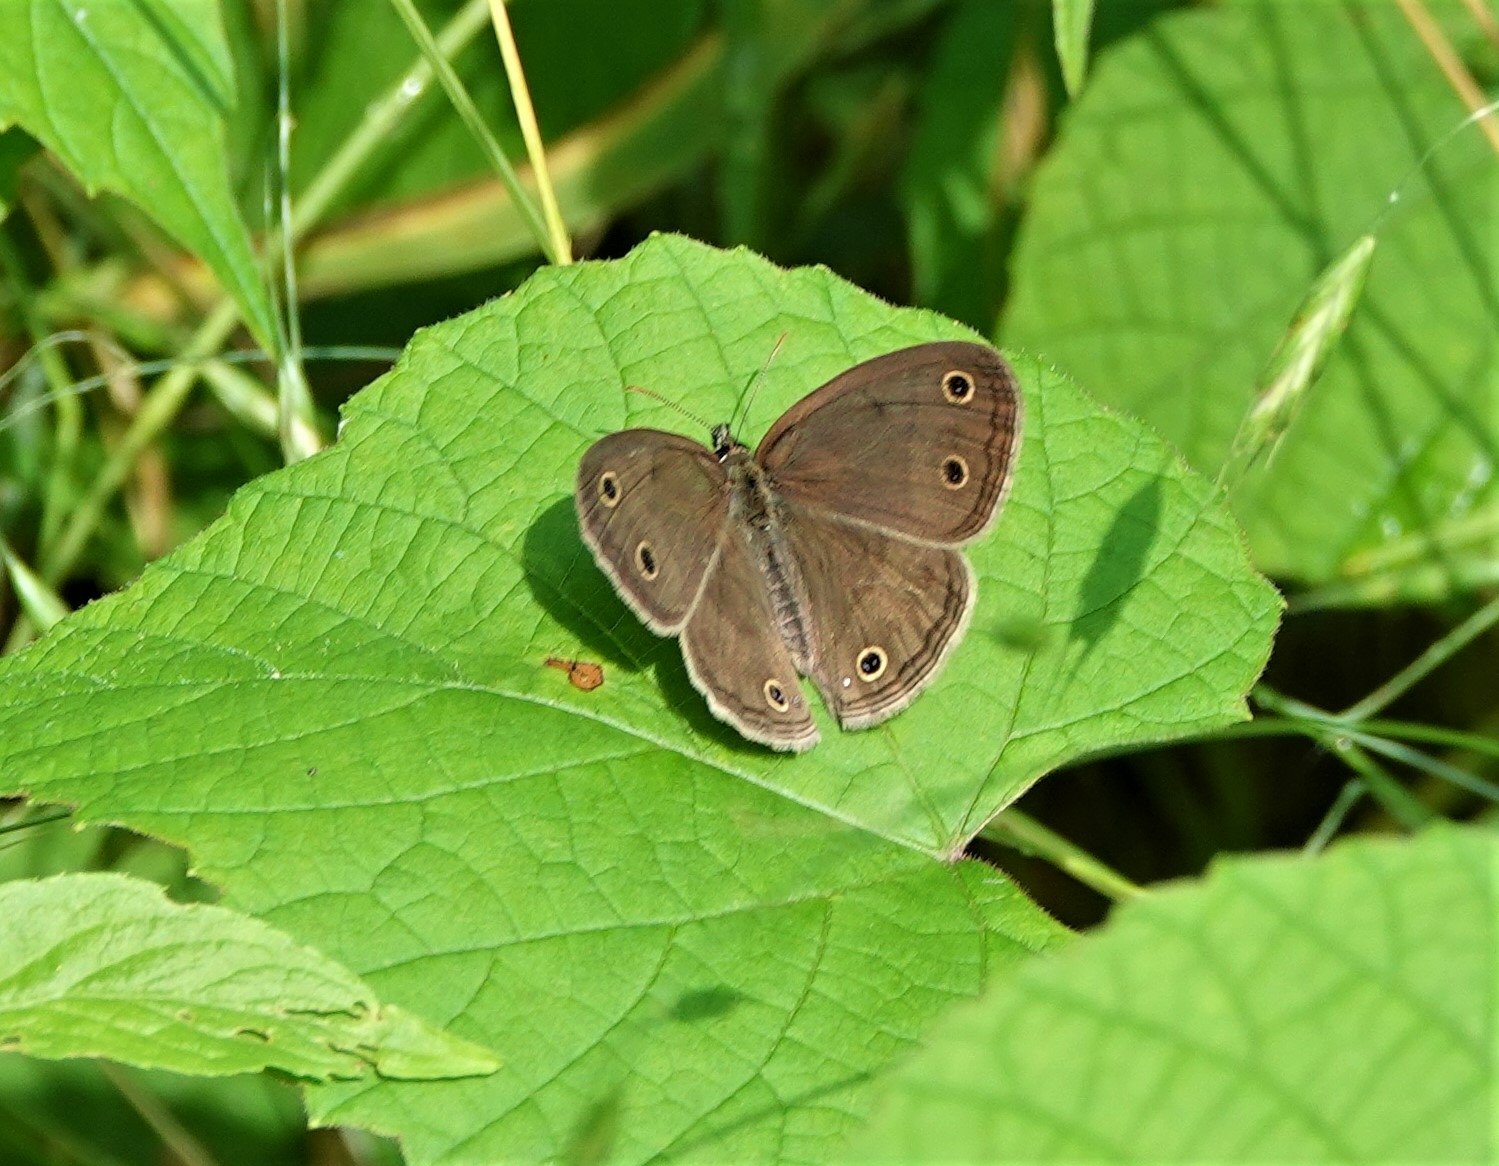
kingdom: Animalia
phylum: Arthropoda
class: Insecta
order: Lepidoptera
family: Nymphalidae
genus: Euptychia
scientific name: Euptychia cymela
